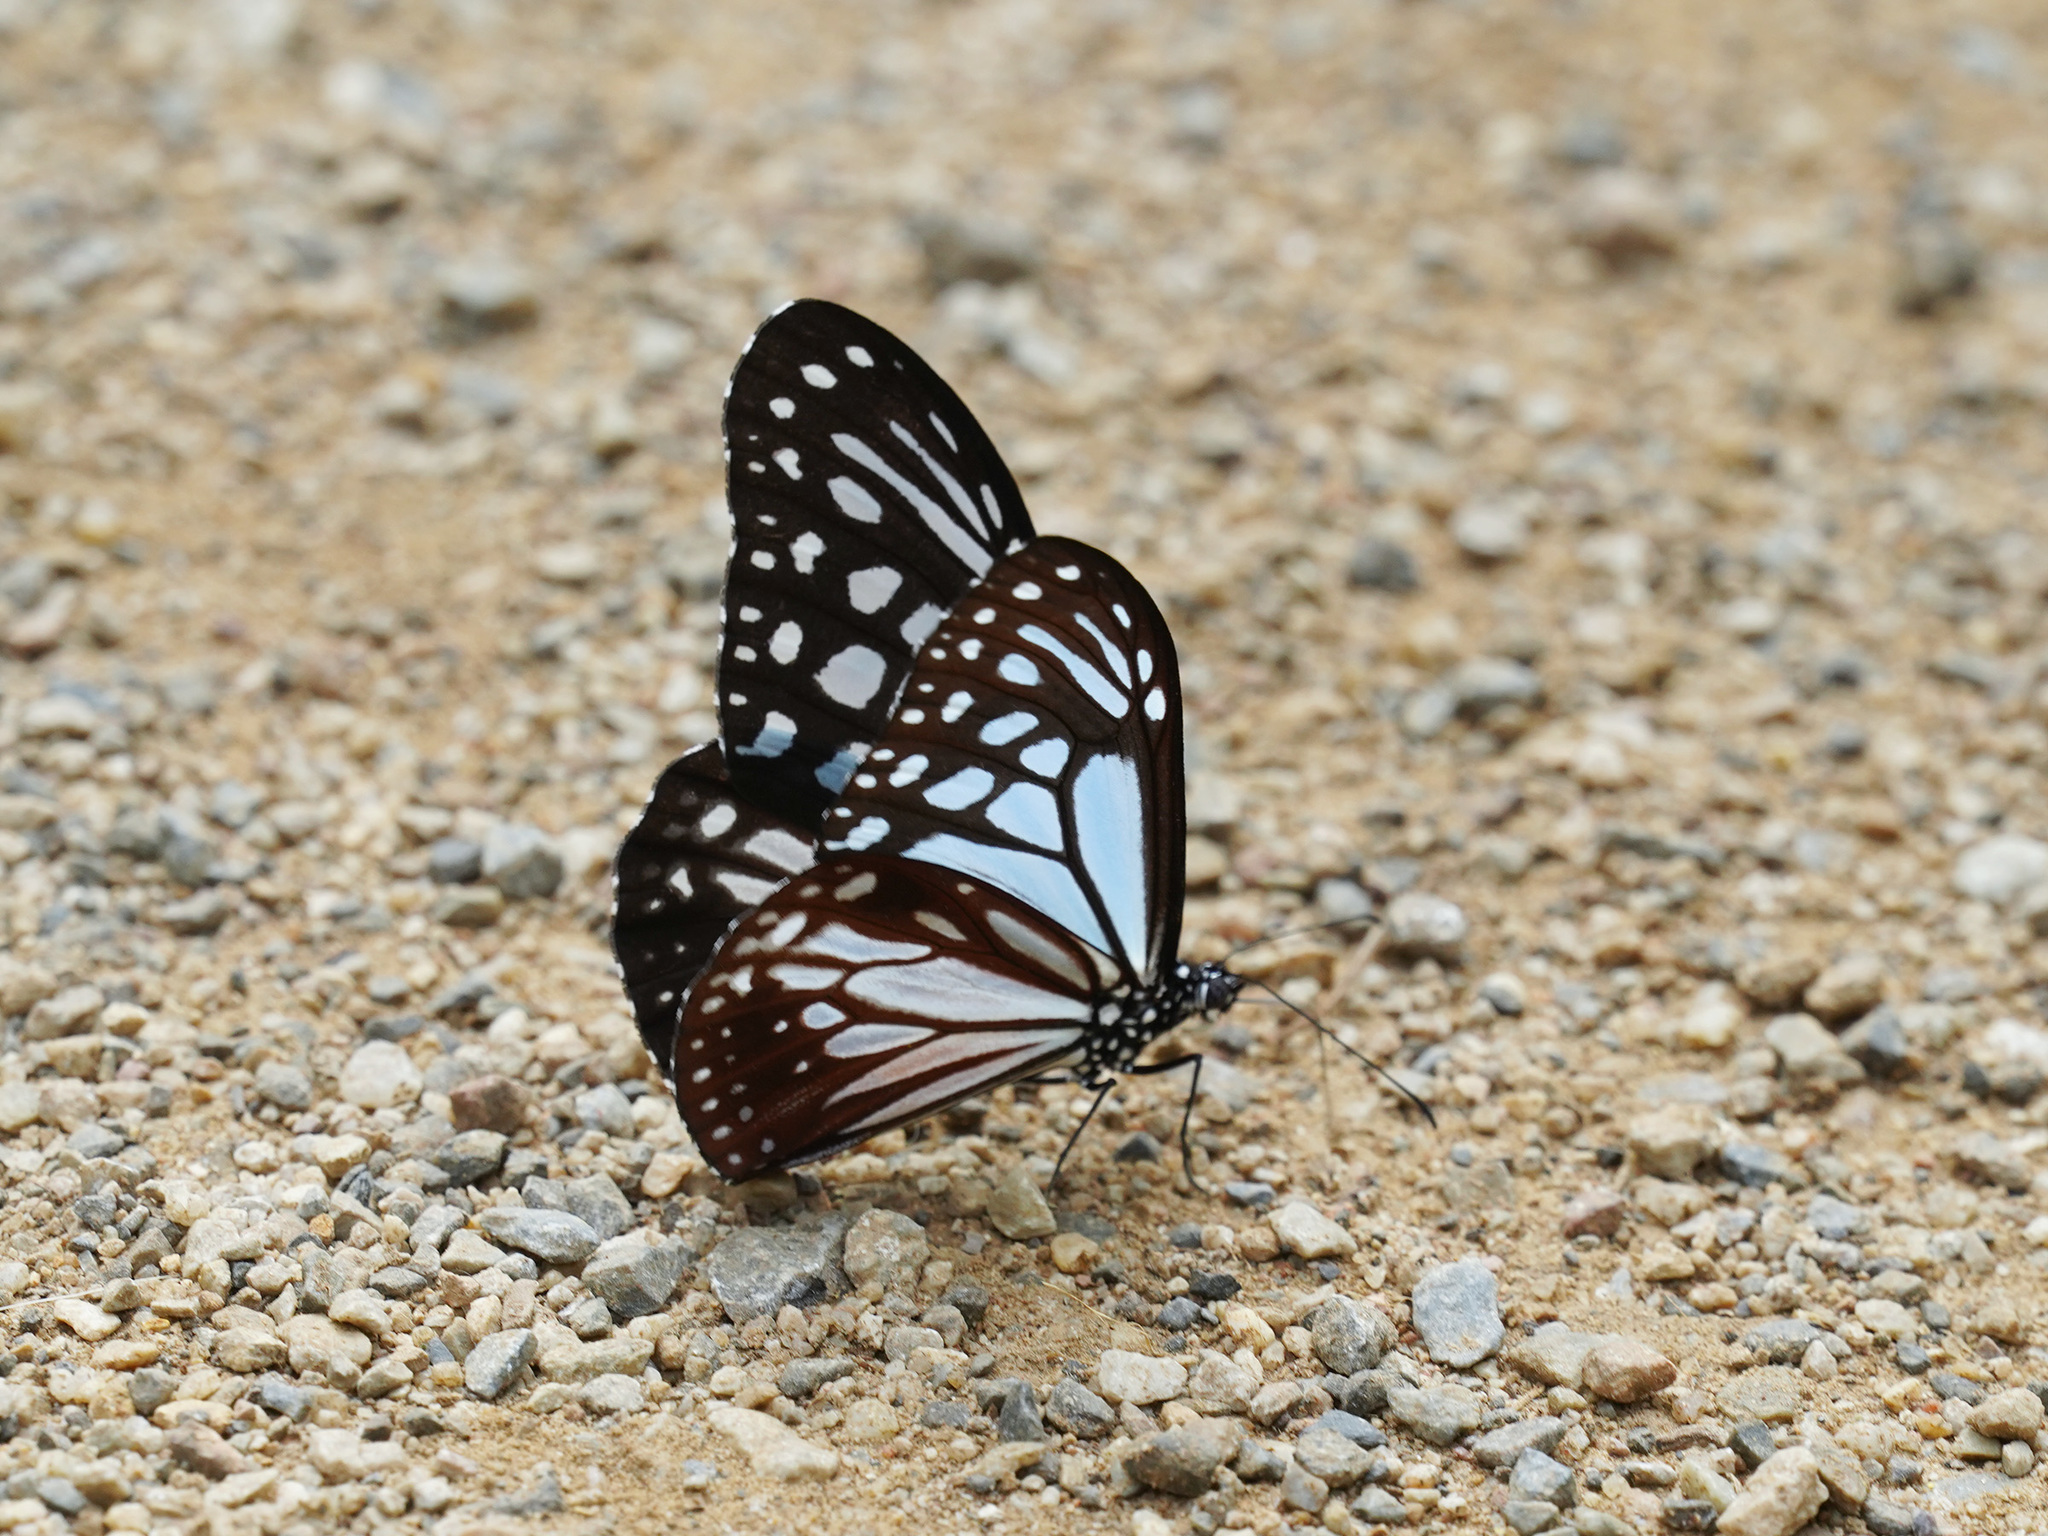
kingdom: Animalia
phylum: Arthropoda
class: Insecta
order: Lepidoptera
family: Nymphalidae
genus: Parantica
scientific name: Parantica melaneus
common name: Chocolate tiger
